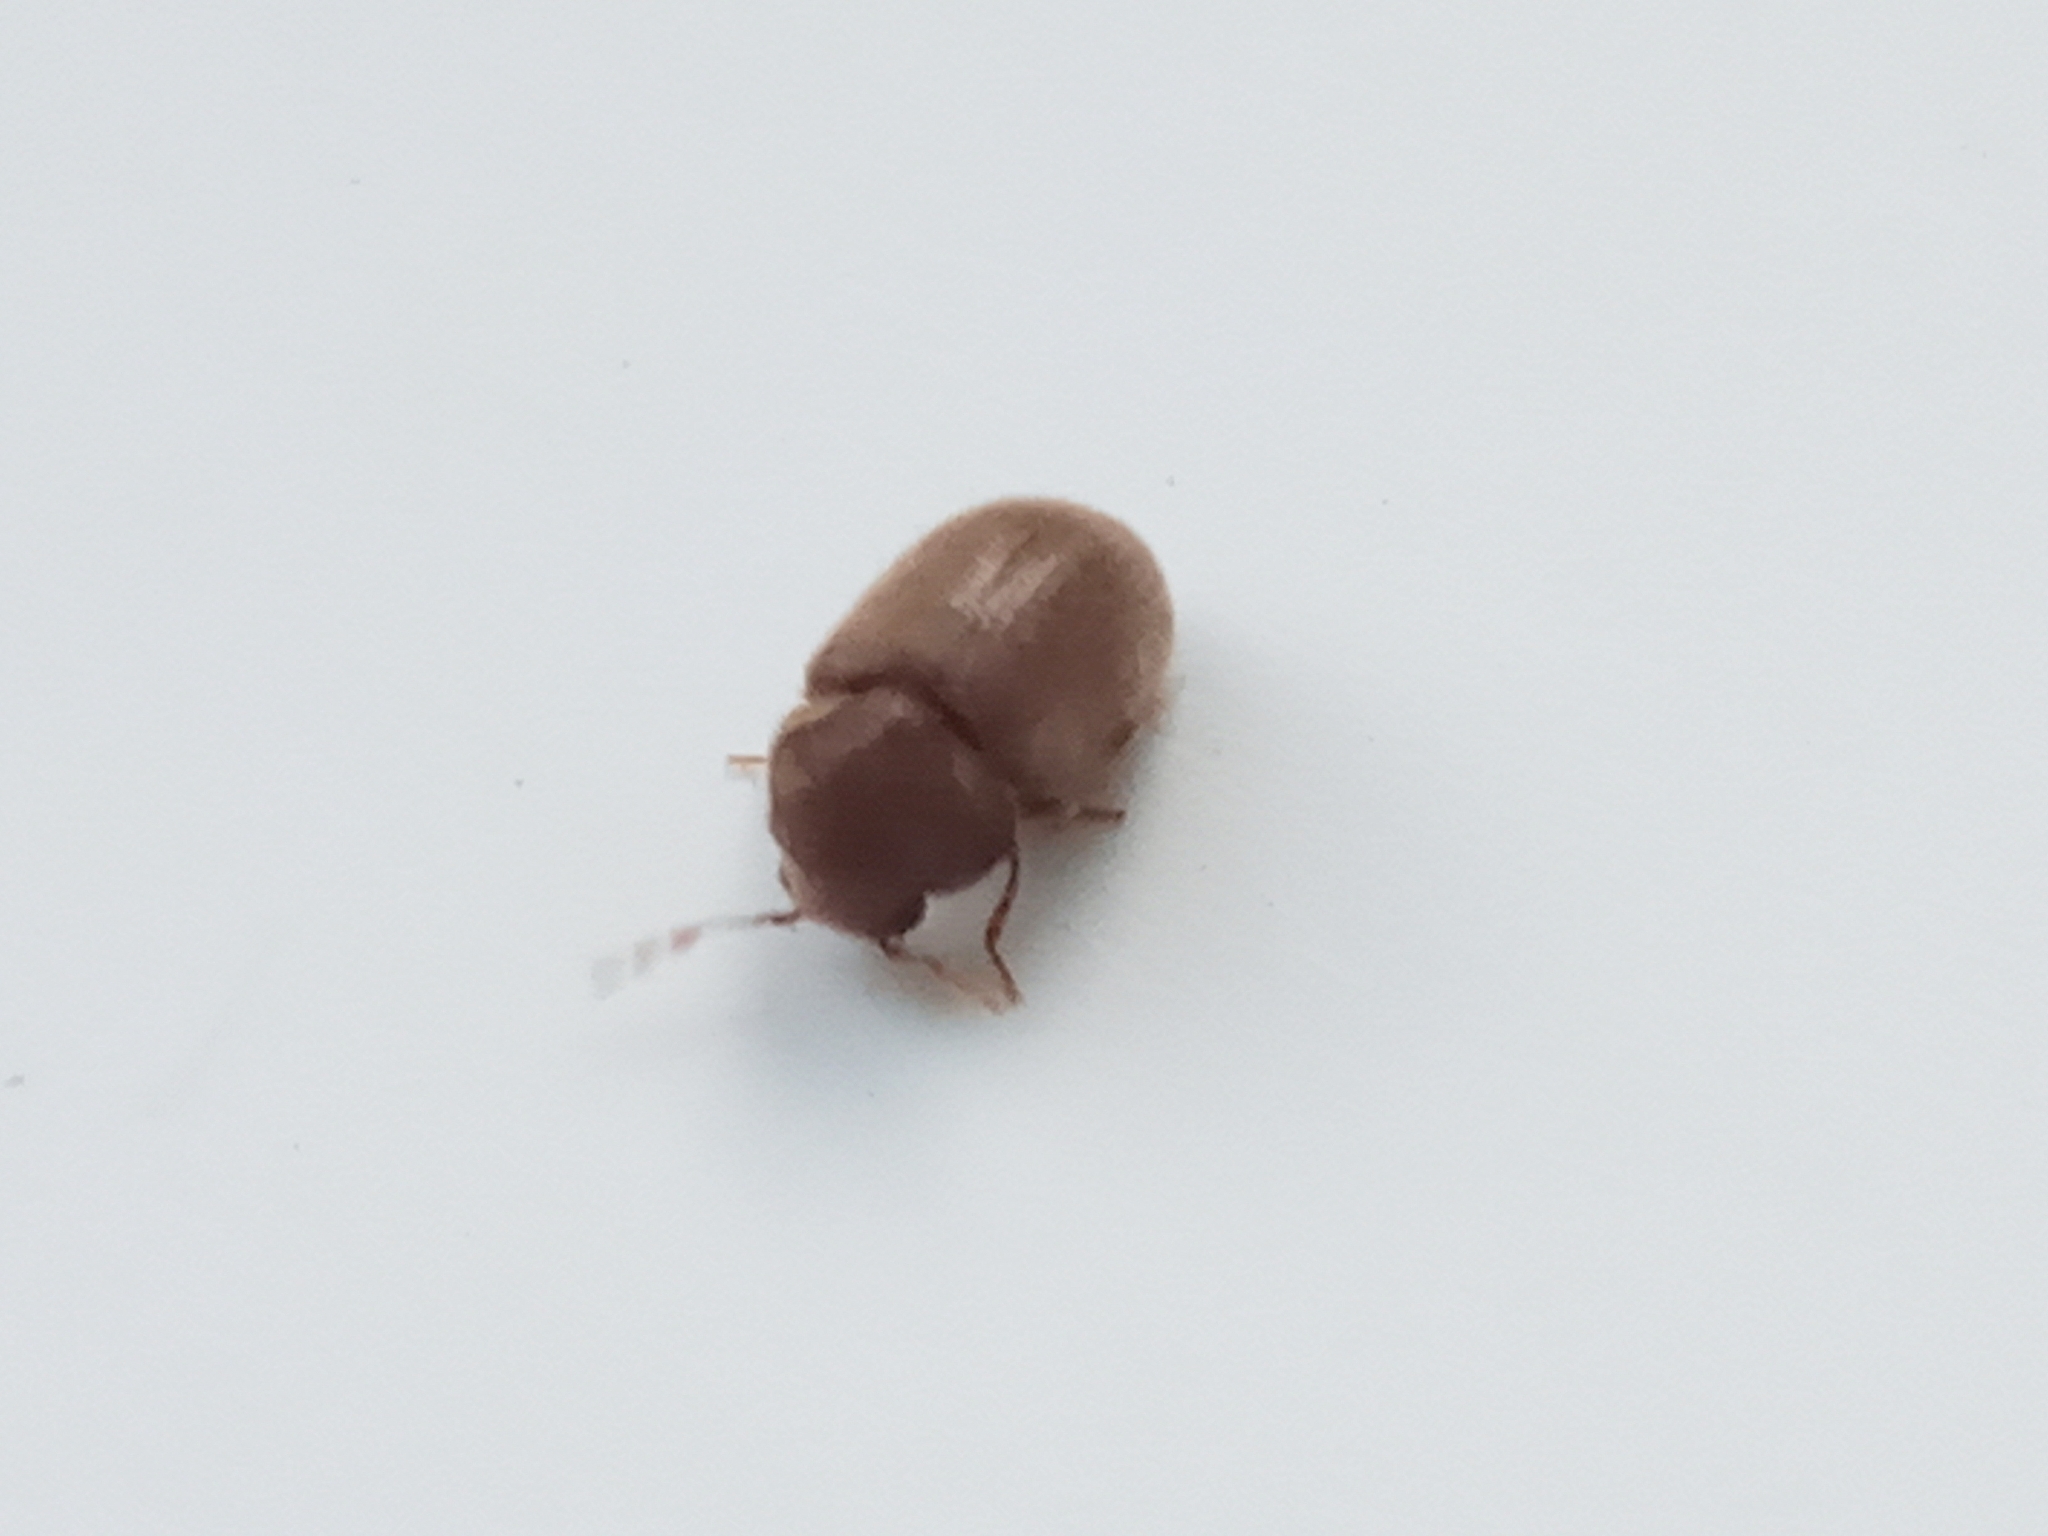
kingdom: Animalia
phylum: Arthropoda
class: Insecta
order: Coleoptera
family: Anobiidae
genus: Stegobium
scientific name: Stegobium paniceum
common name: Drugstore beetle
